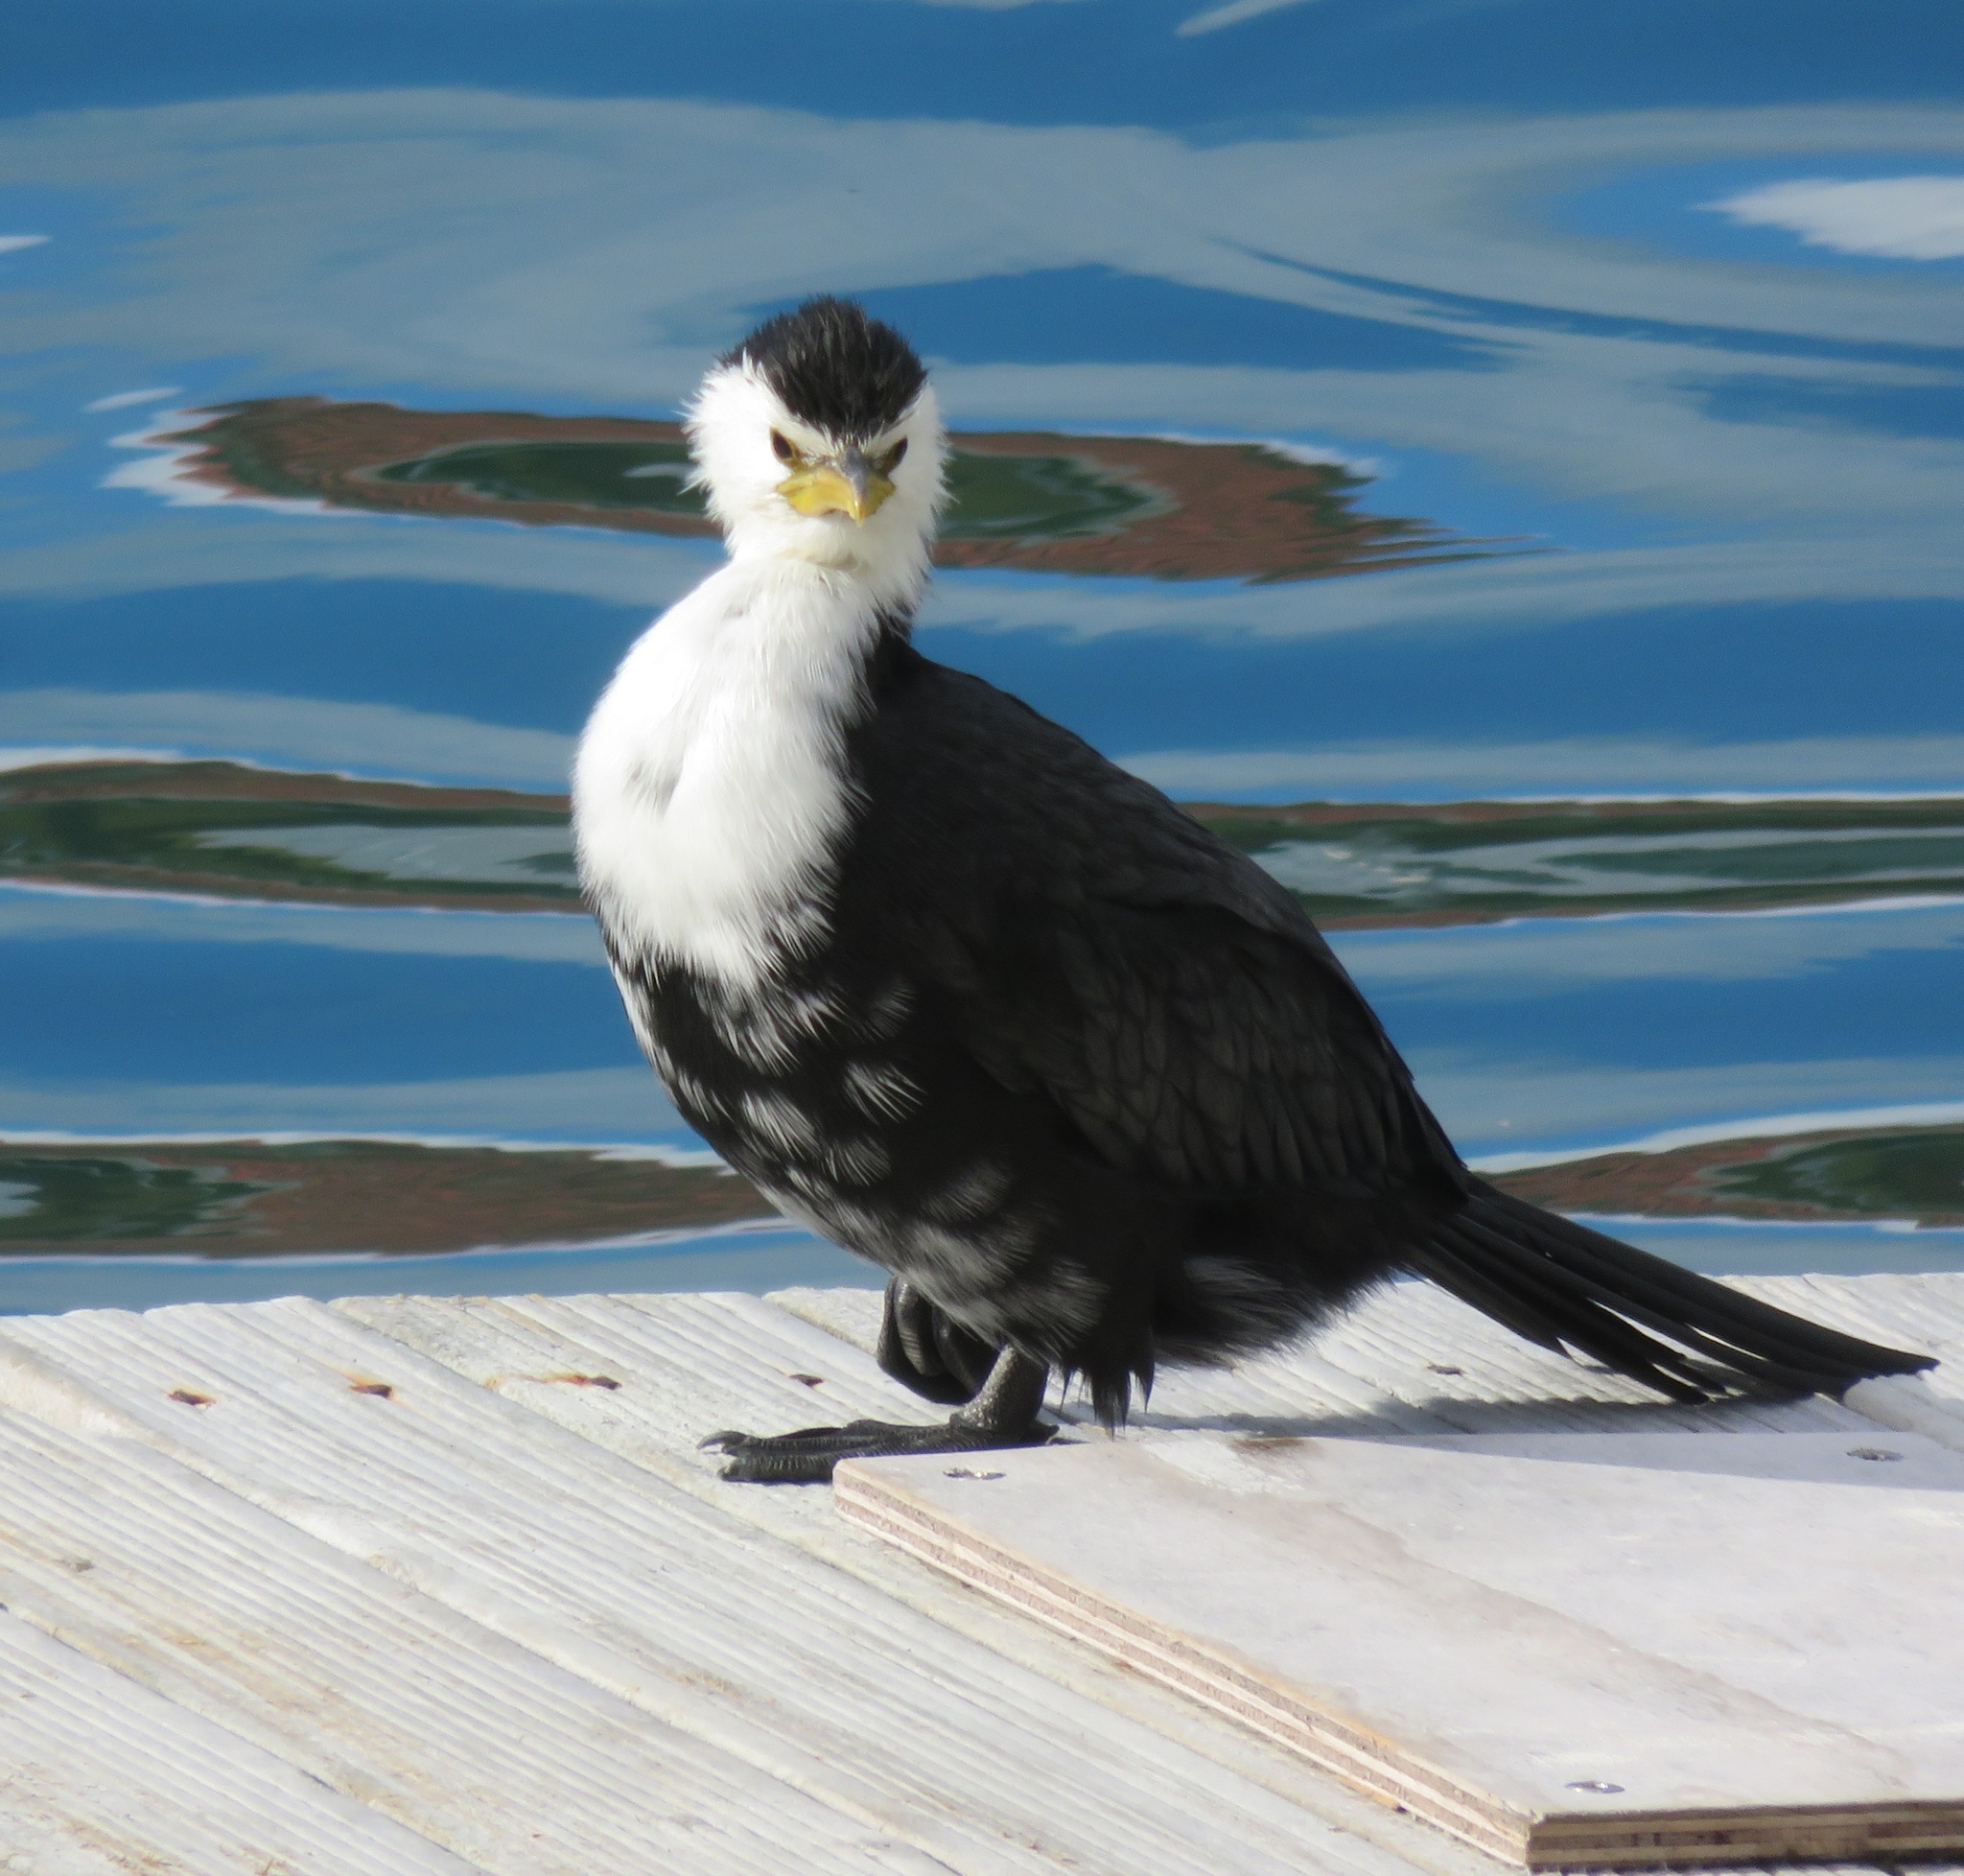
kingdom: Animalia
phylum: Chordata
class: Aves
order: Suliformes
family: Phalacrocoracidae
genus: Microcarbo
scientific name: Microcarbo melanoleucos
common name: Little pied cormorant
